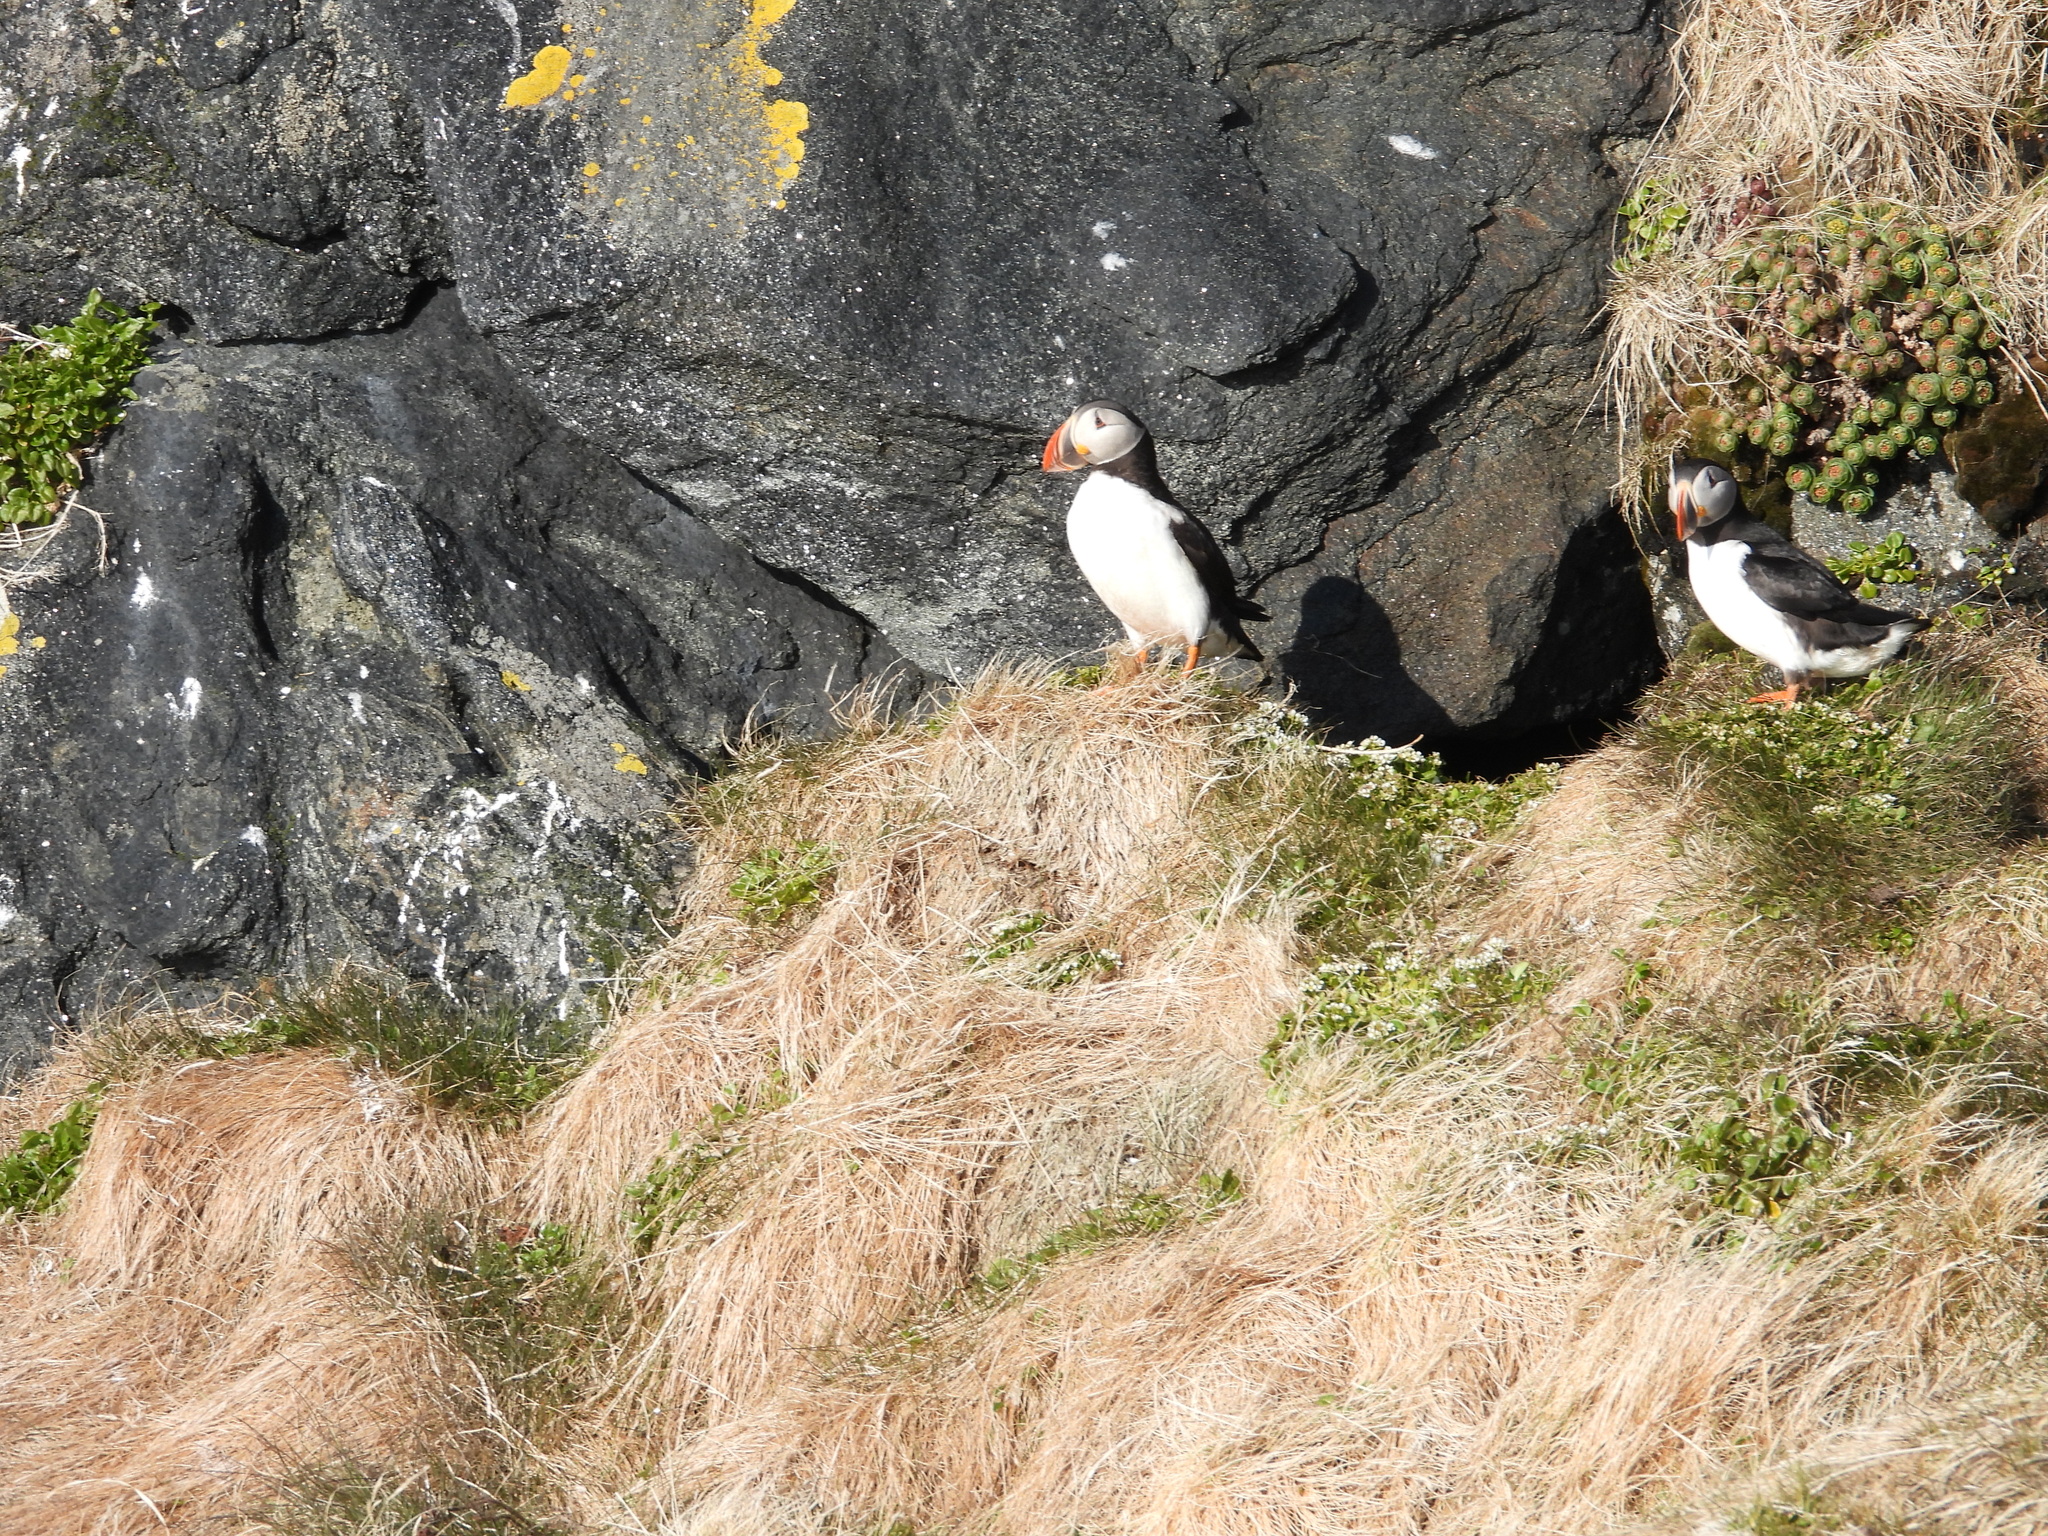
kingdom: Animalia
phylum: Chordata
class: Aves
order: Charadriiformes
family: Alcidae
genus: Fratercula
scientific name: Fratercula arctica
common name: Atlantic puffin
